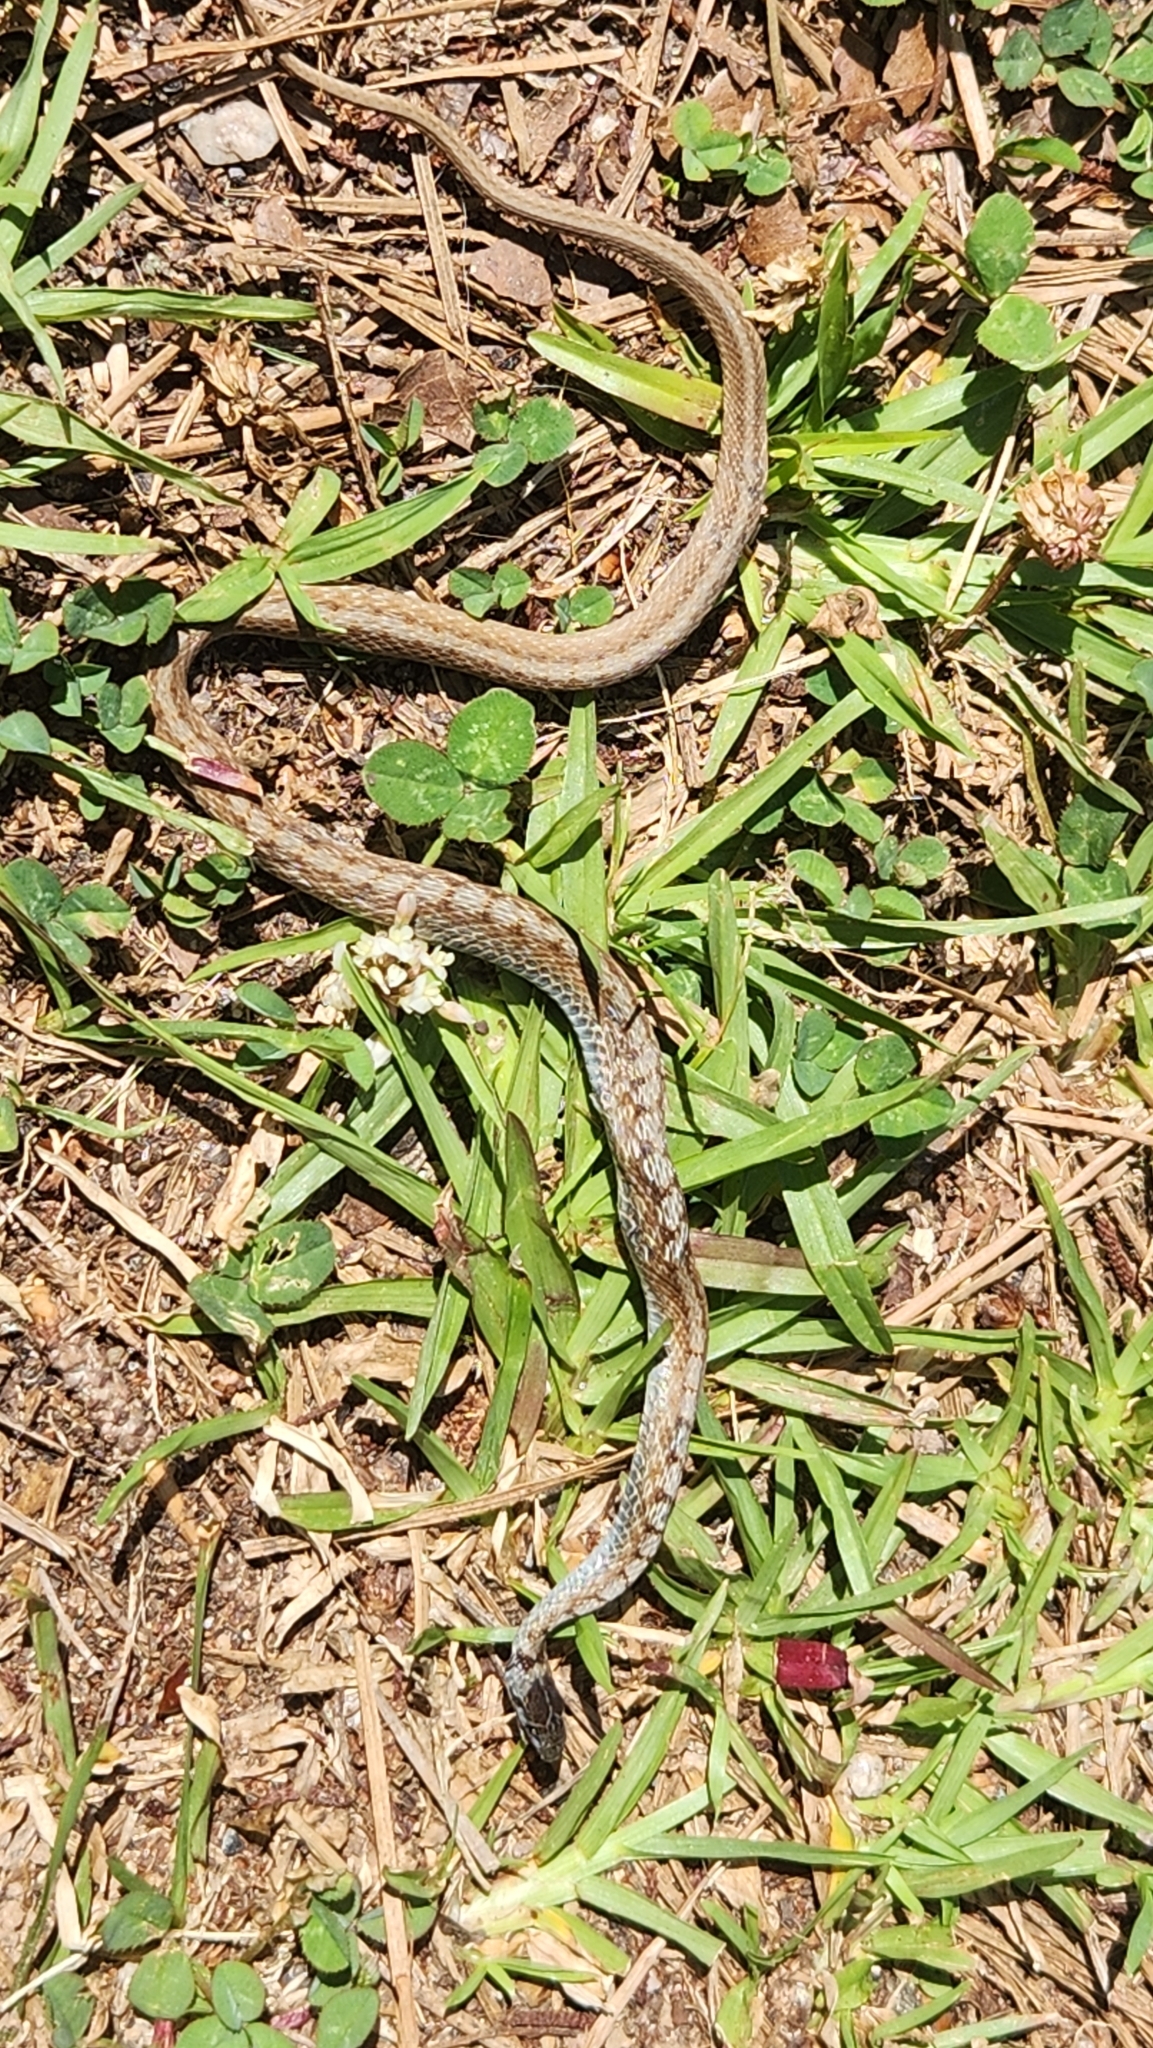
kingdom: Animalia
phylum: Chordata
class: Squamata
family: Colubridae
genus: Storeria
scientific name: Storeria dekayi
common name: (dekay’s) brown snake
